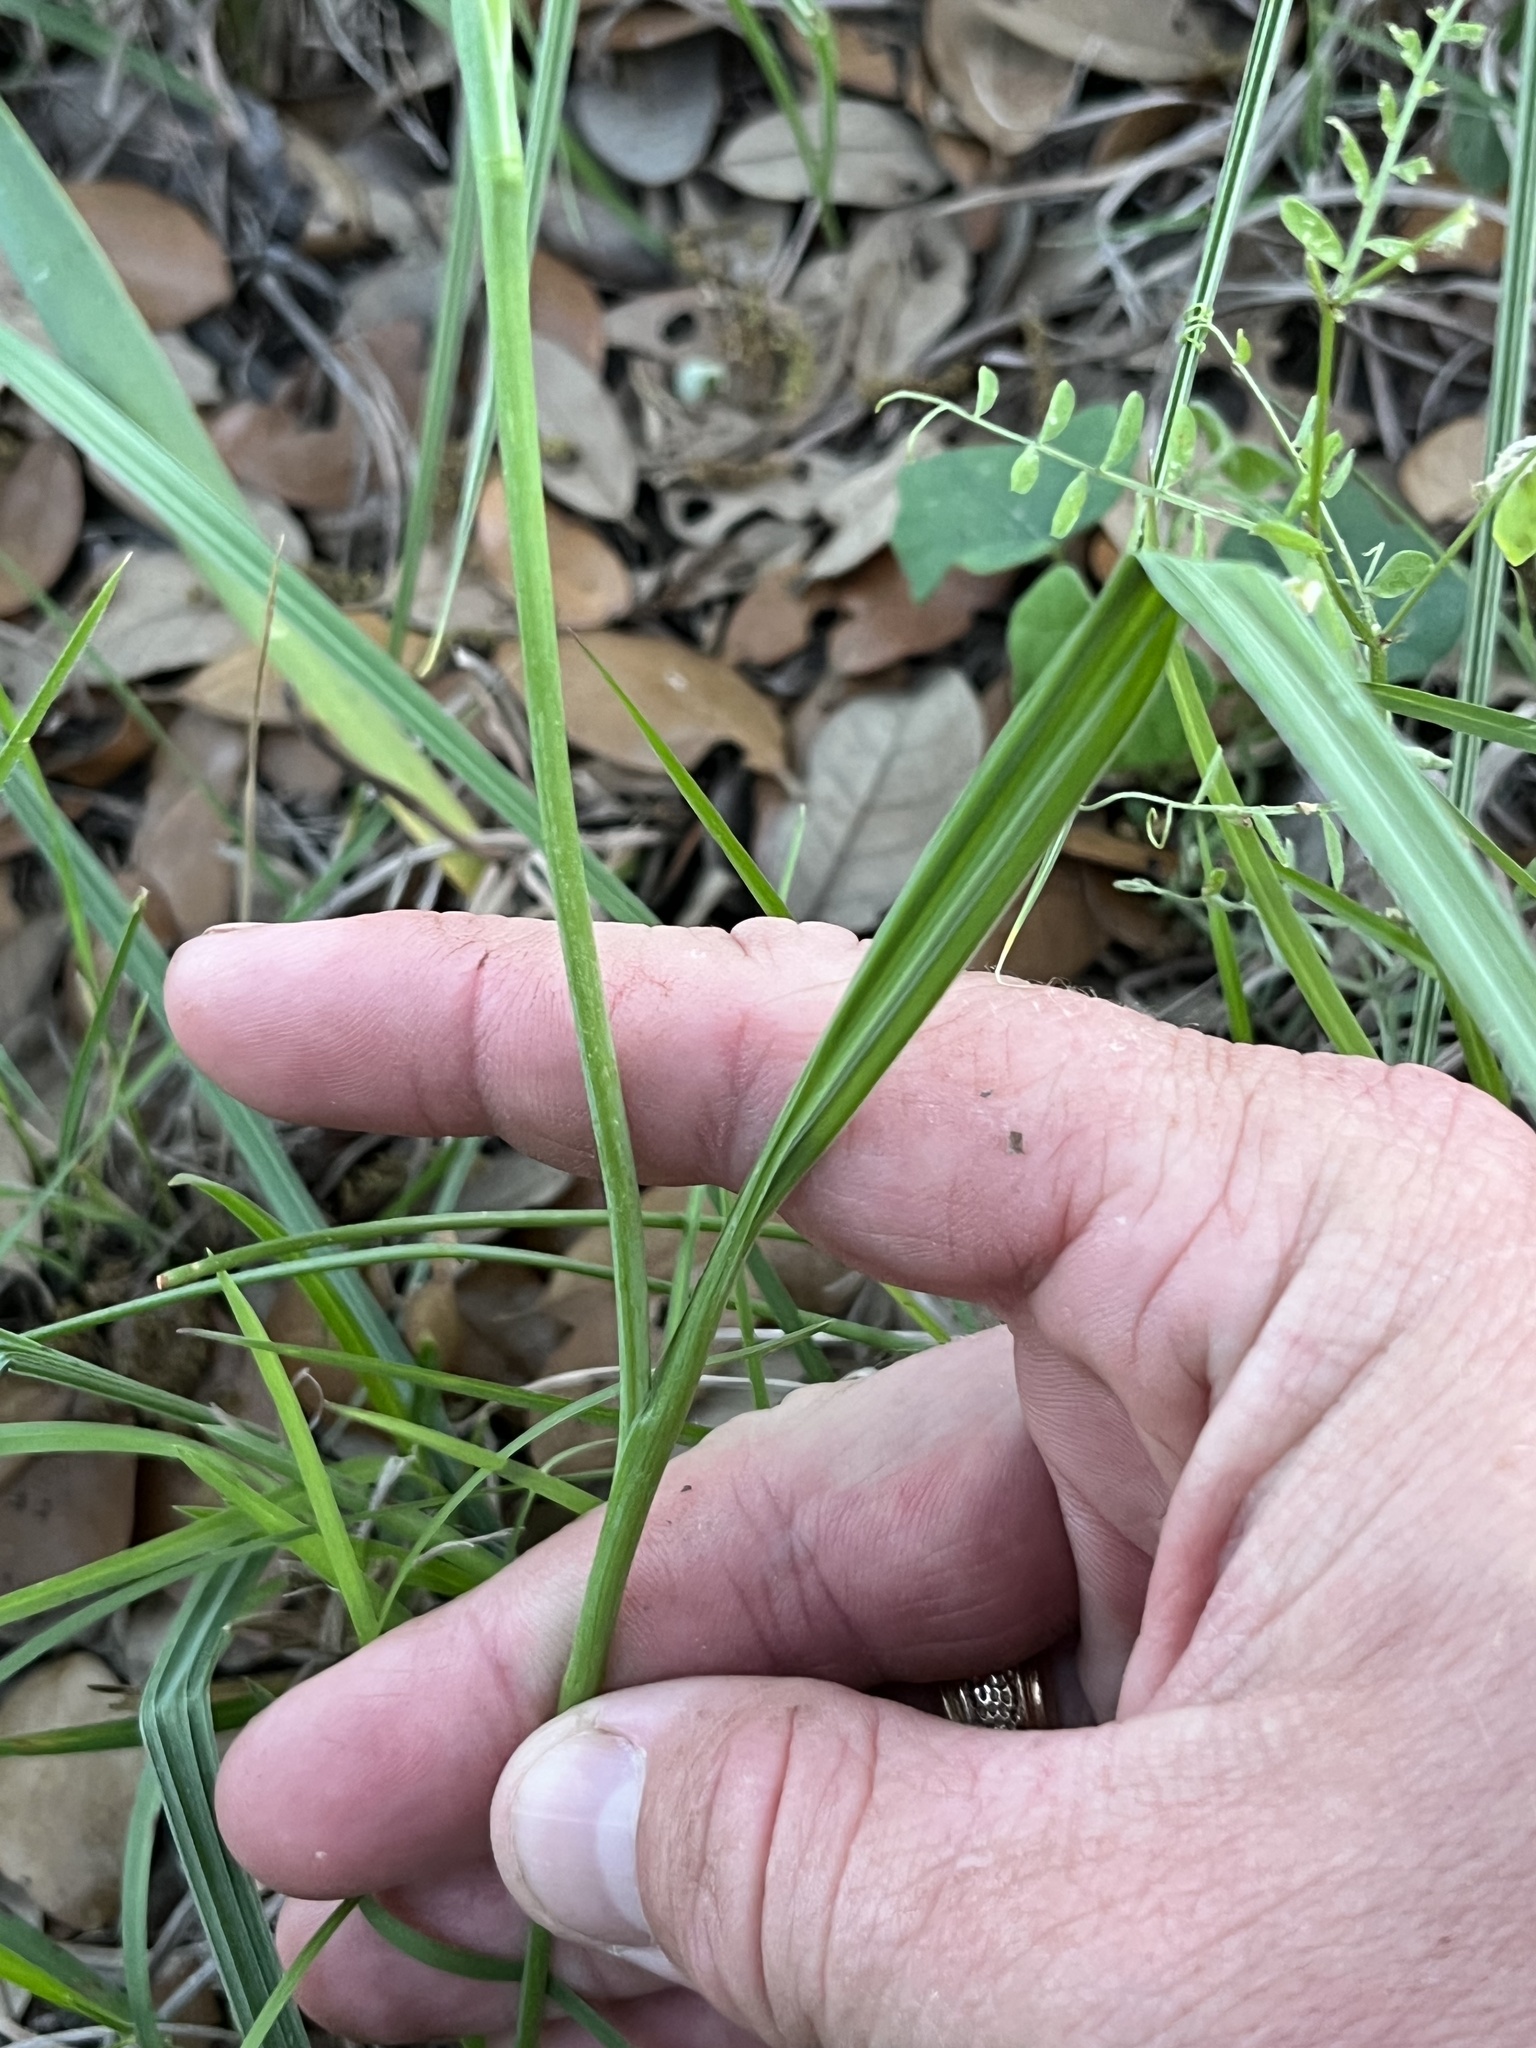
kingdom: Plantae
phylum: Tracheophyta
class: Liliopsida
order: Asparagales
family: Iridaceae
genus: Nemastylis
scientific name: Nemastylis geminiflora
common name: Prairie celestial
